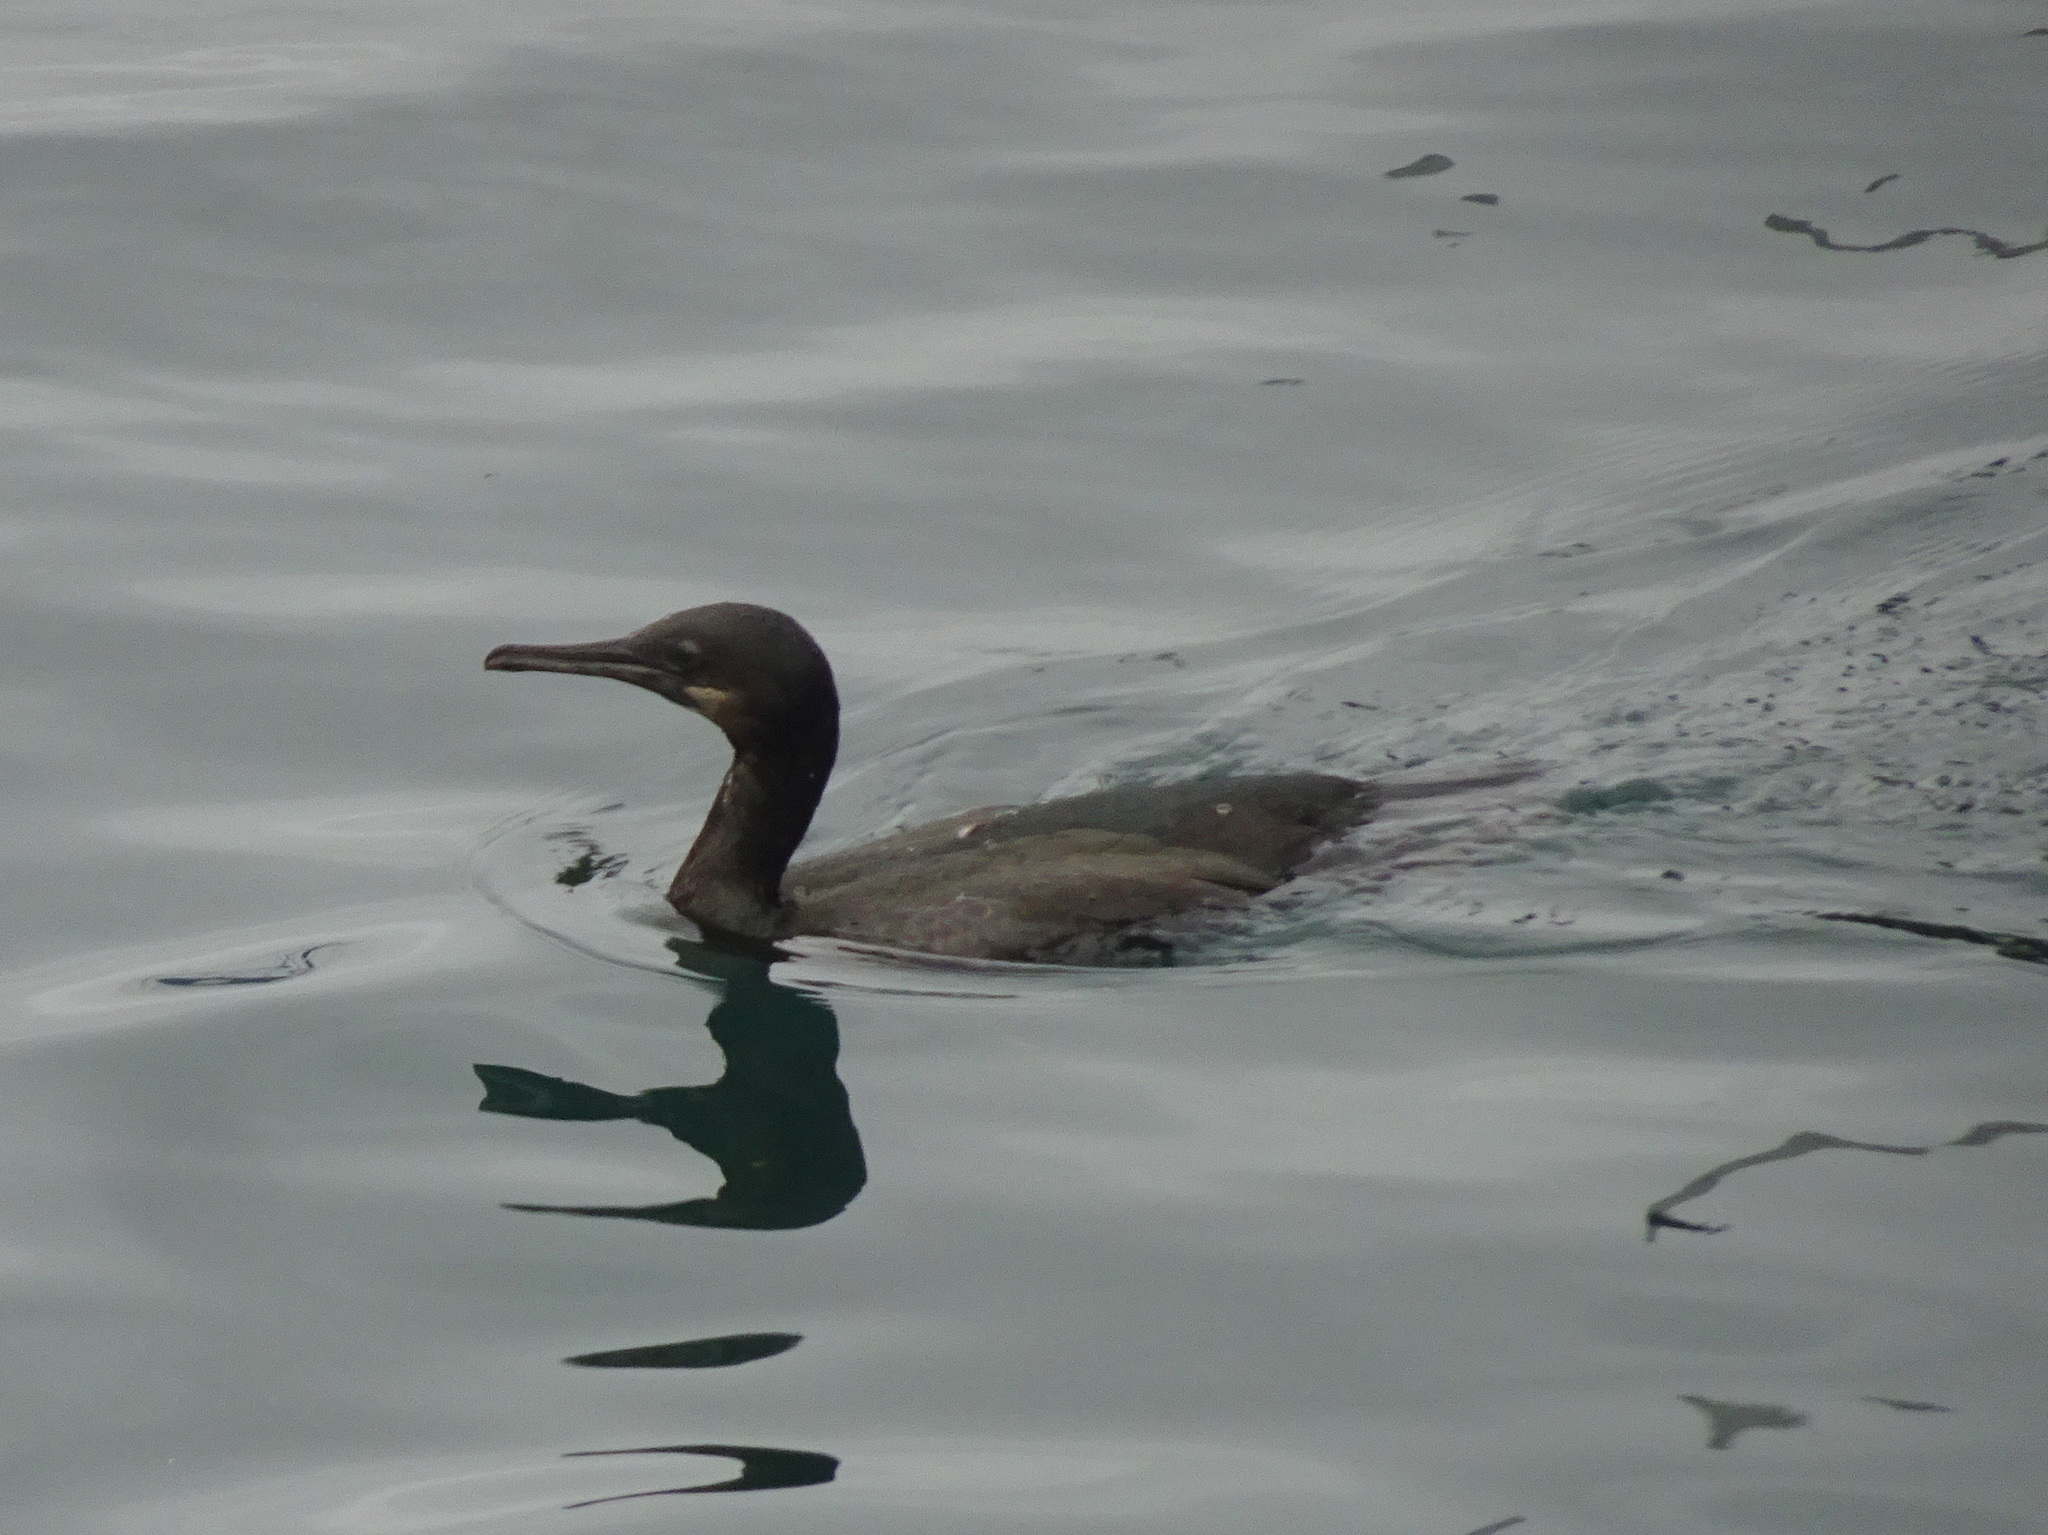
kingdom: Animalia
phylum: Chordata
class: Aves
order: Suliformes
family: Phalacrocoracidae
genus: Urile
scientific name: Urile penicillatus
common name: Brandt's cormorant
